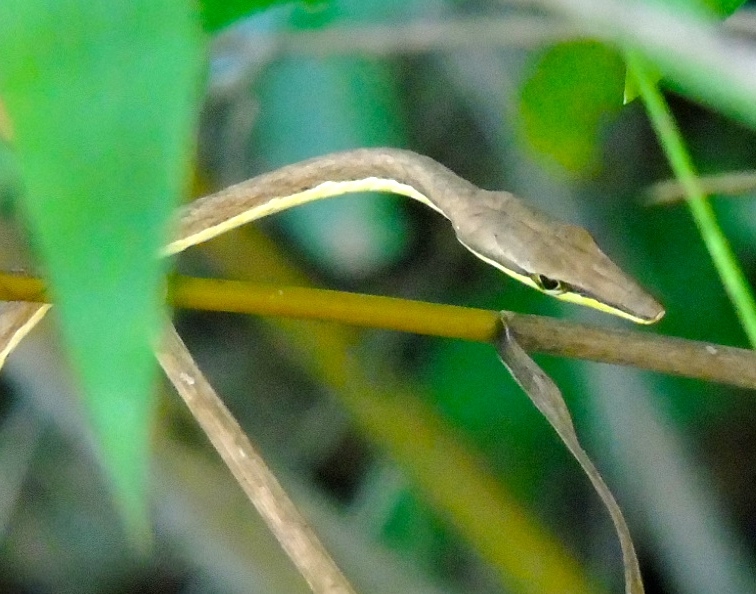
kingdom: Animalia
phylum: Chordata
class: Squamata
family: Colubridae
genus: Oxybelis
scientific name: Oxybelis microphthalmus
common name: Thrornscrub vine snake
